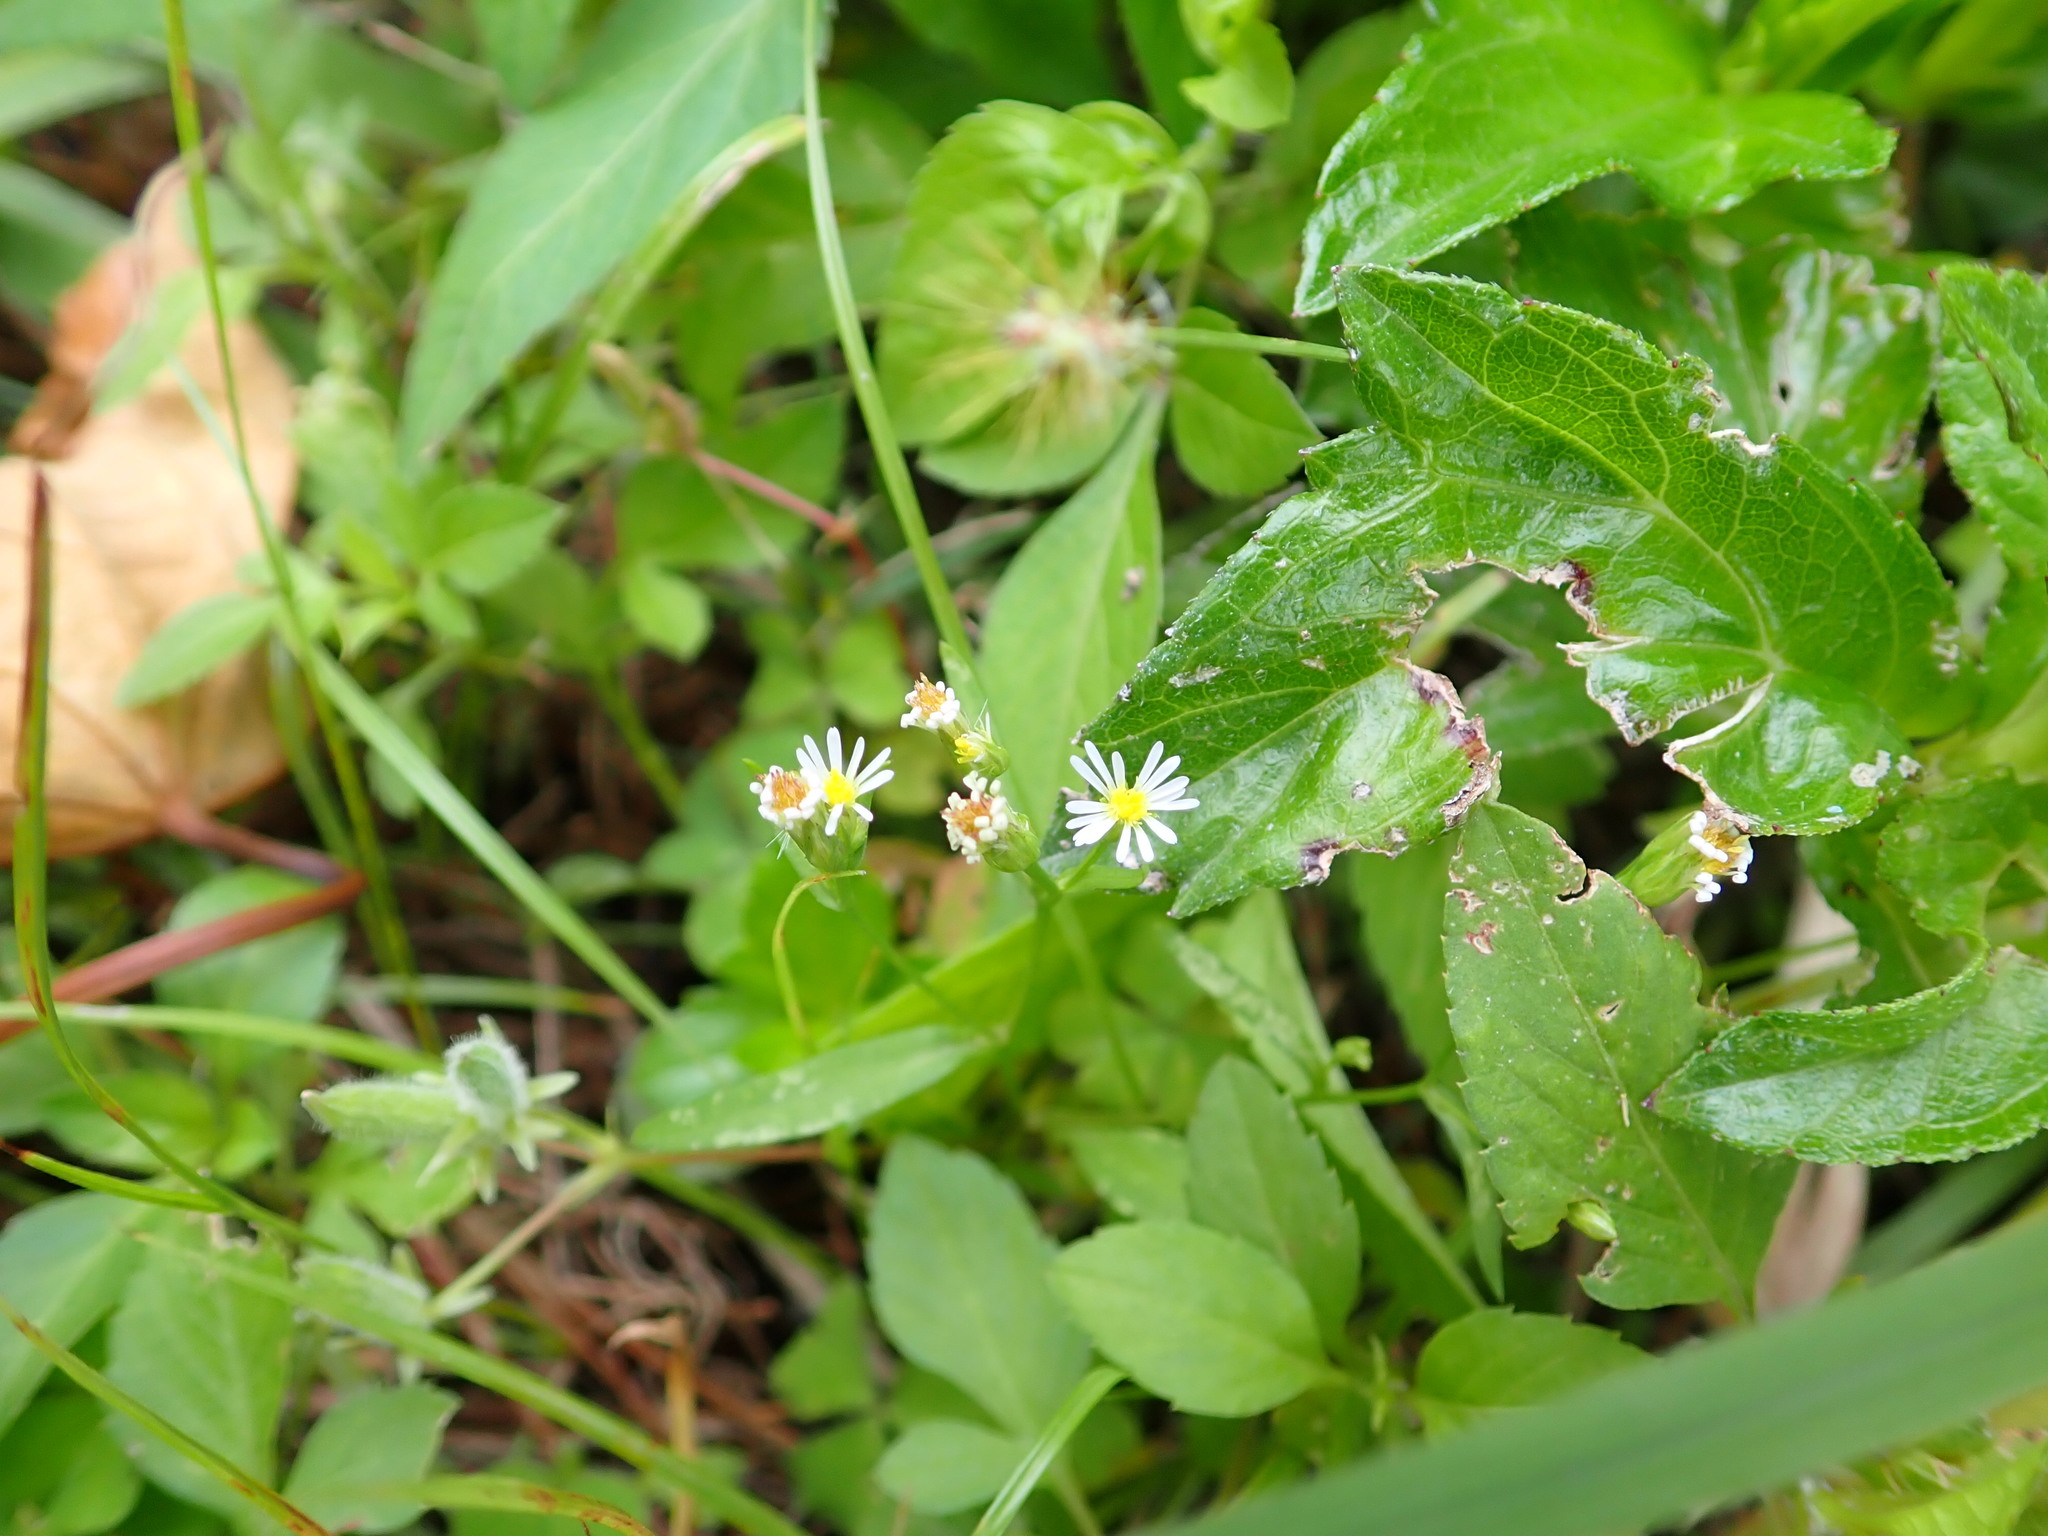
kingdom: Plantae
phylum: Tracheophyta
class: Magnoliopsida
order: Asterales
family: Asteraceae
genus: Symphyotrichum
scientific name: Symphyotrichum subulatum
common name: Annual saltmarsh aster
